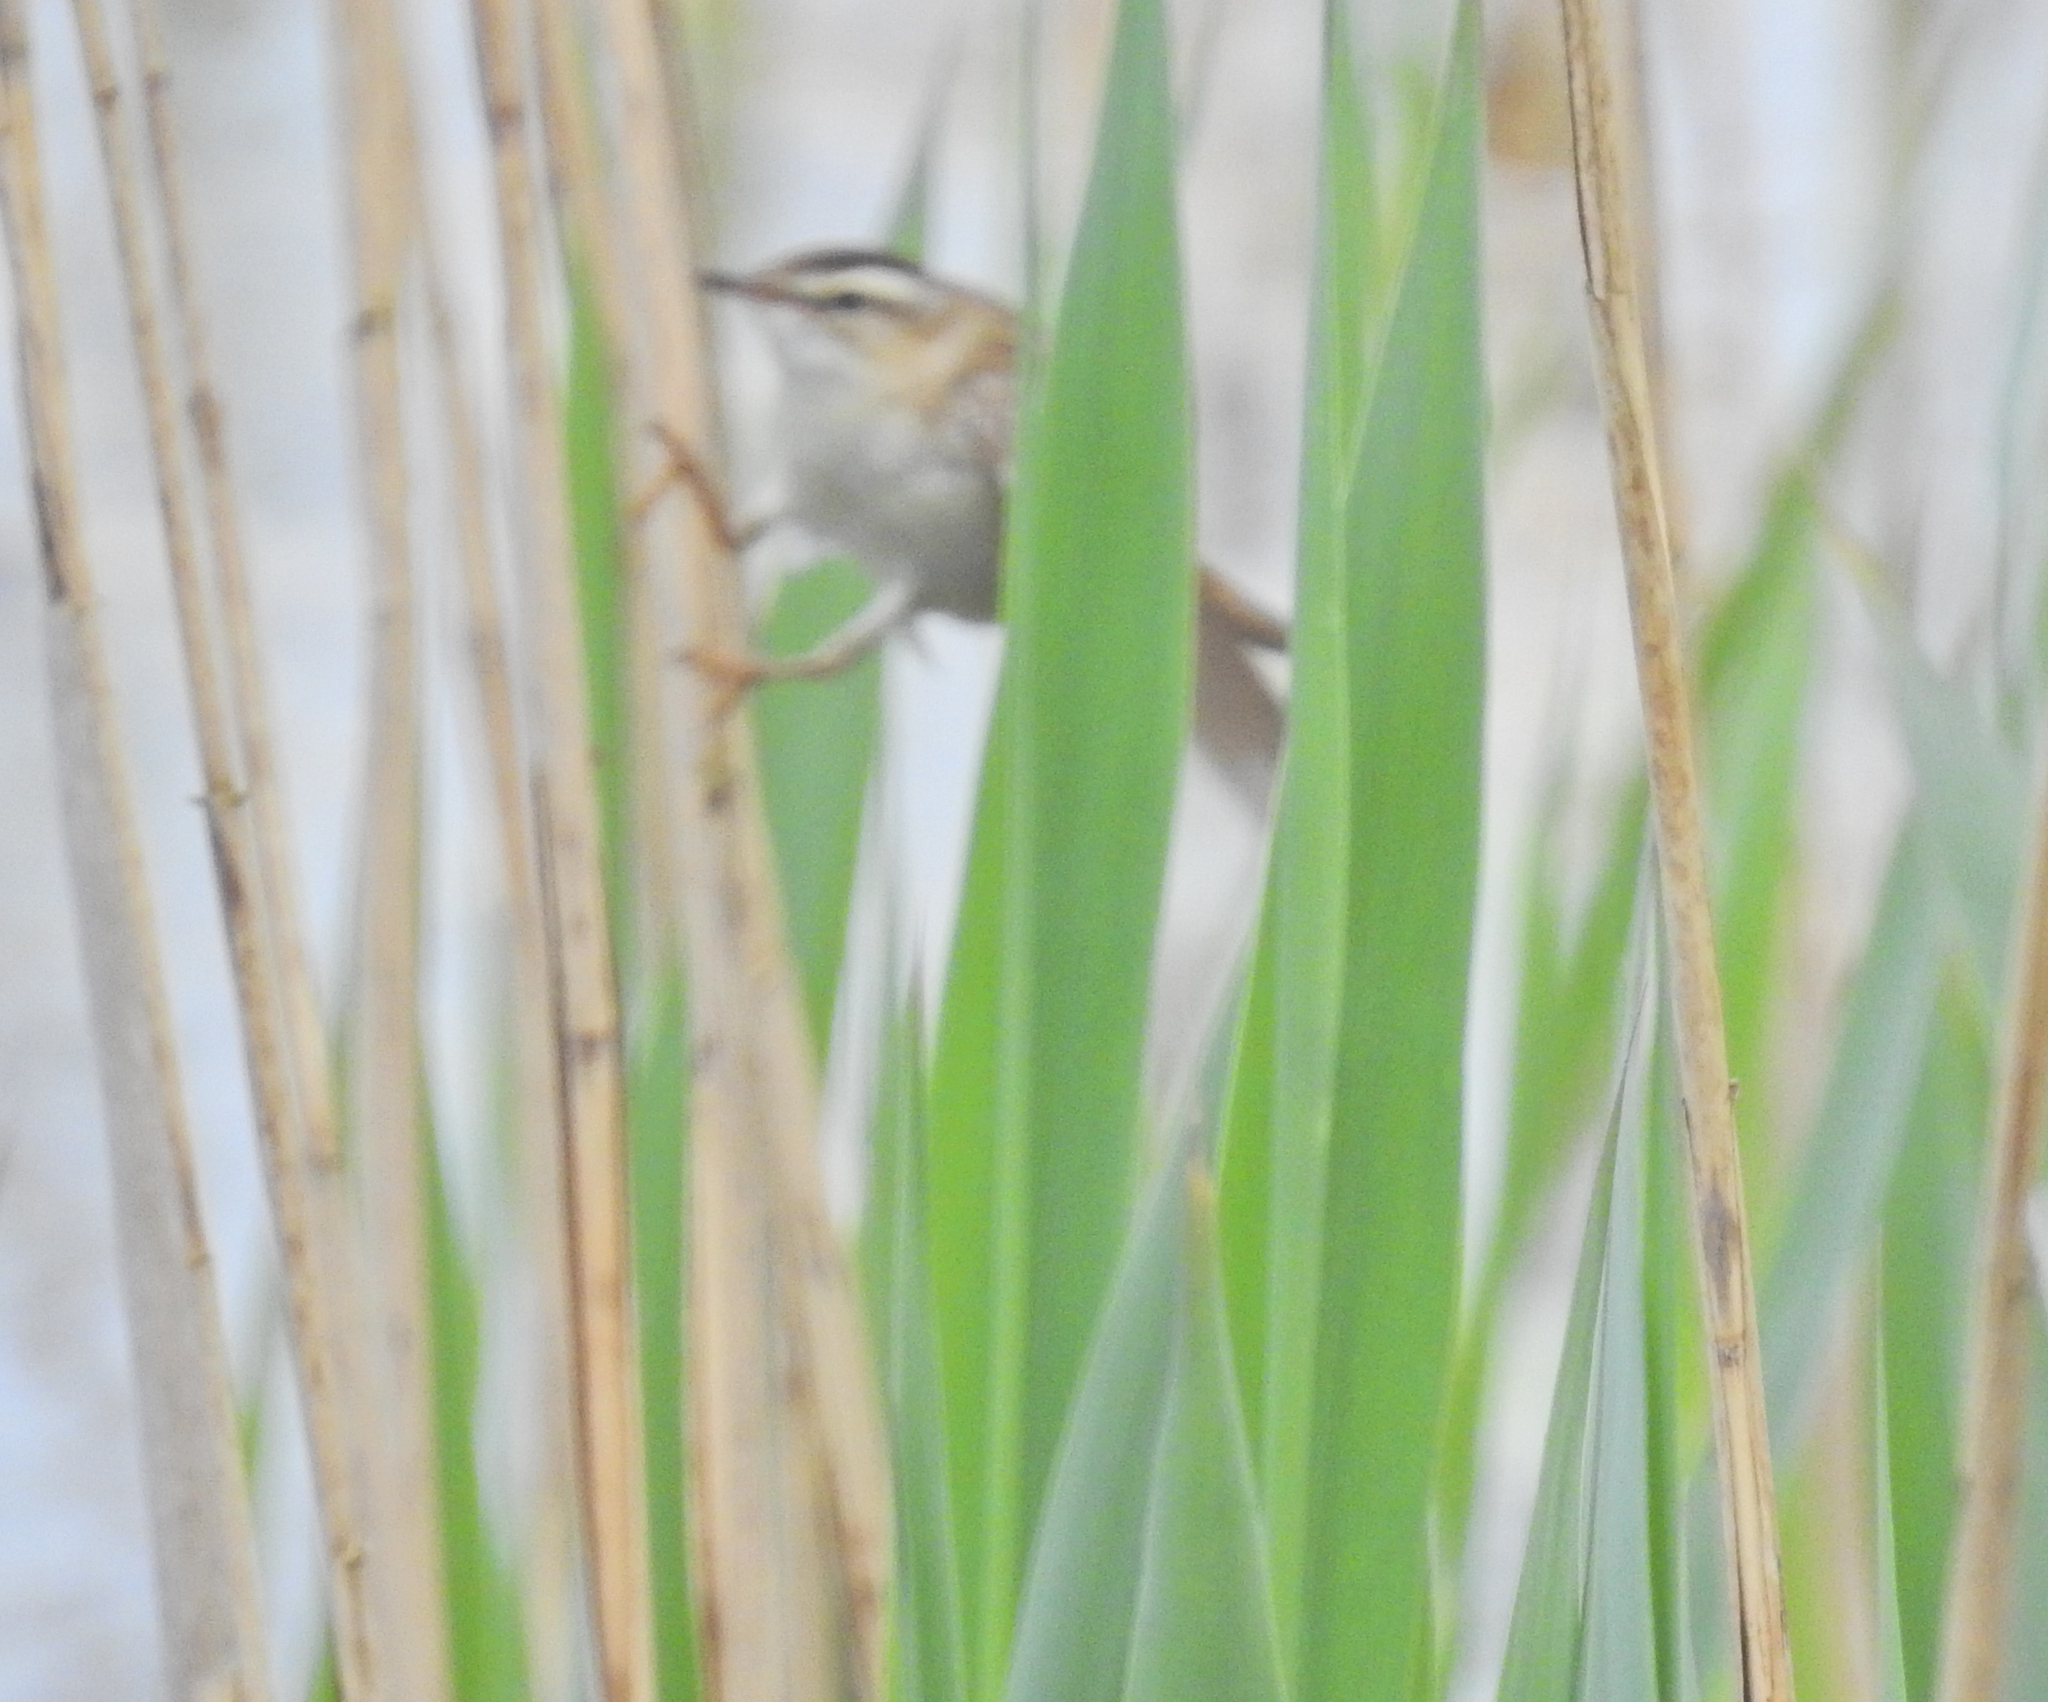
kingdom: Animalia
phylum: Chordata
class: Aves
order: Passeriformes
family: Acrocephalidae
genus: Acrocephalus
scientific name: Acrocephalus schoenobaenus
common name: Sedge warbler
